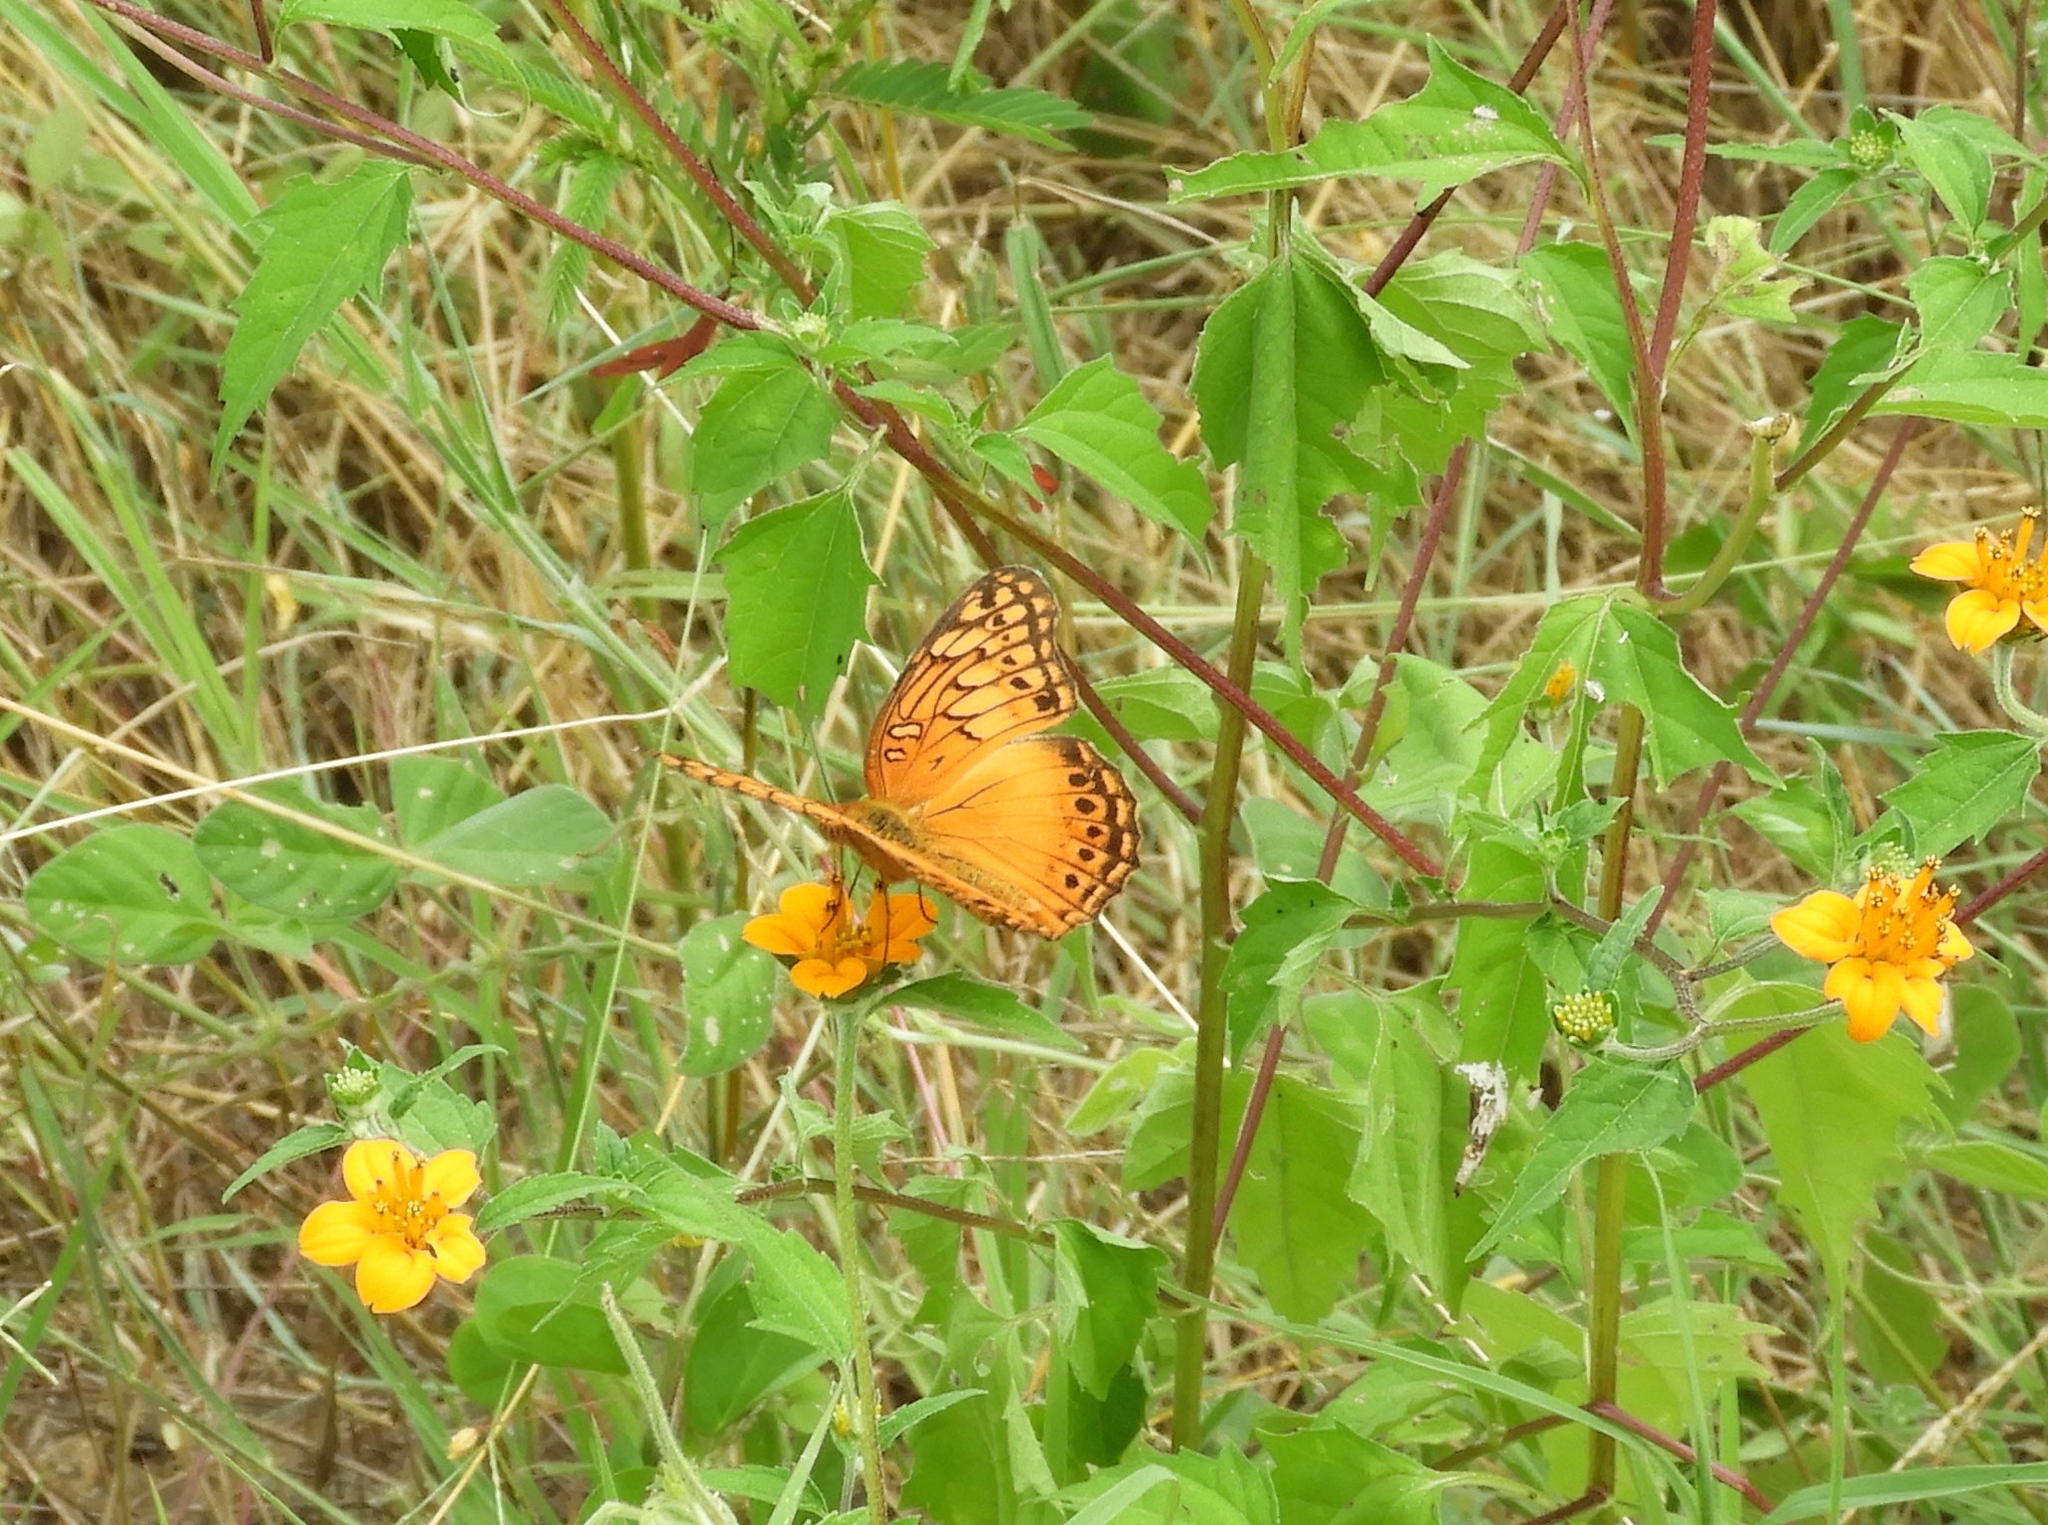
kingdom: Animalia
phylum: Arthropoda
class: Insecta
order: Lepidoptera
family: Nymphalidae
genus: Euptoieta
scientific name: Euptoieta hegesia
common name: Mexican fritillary
